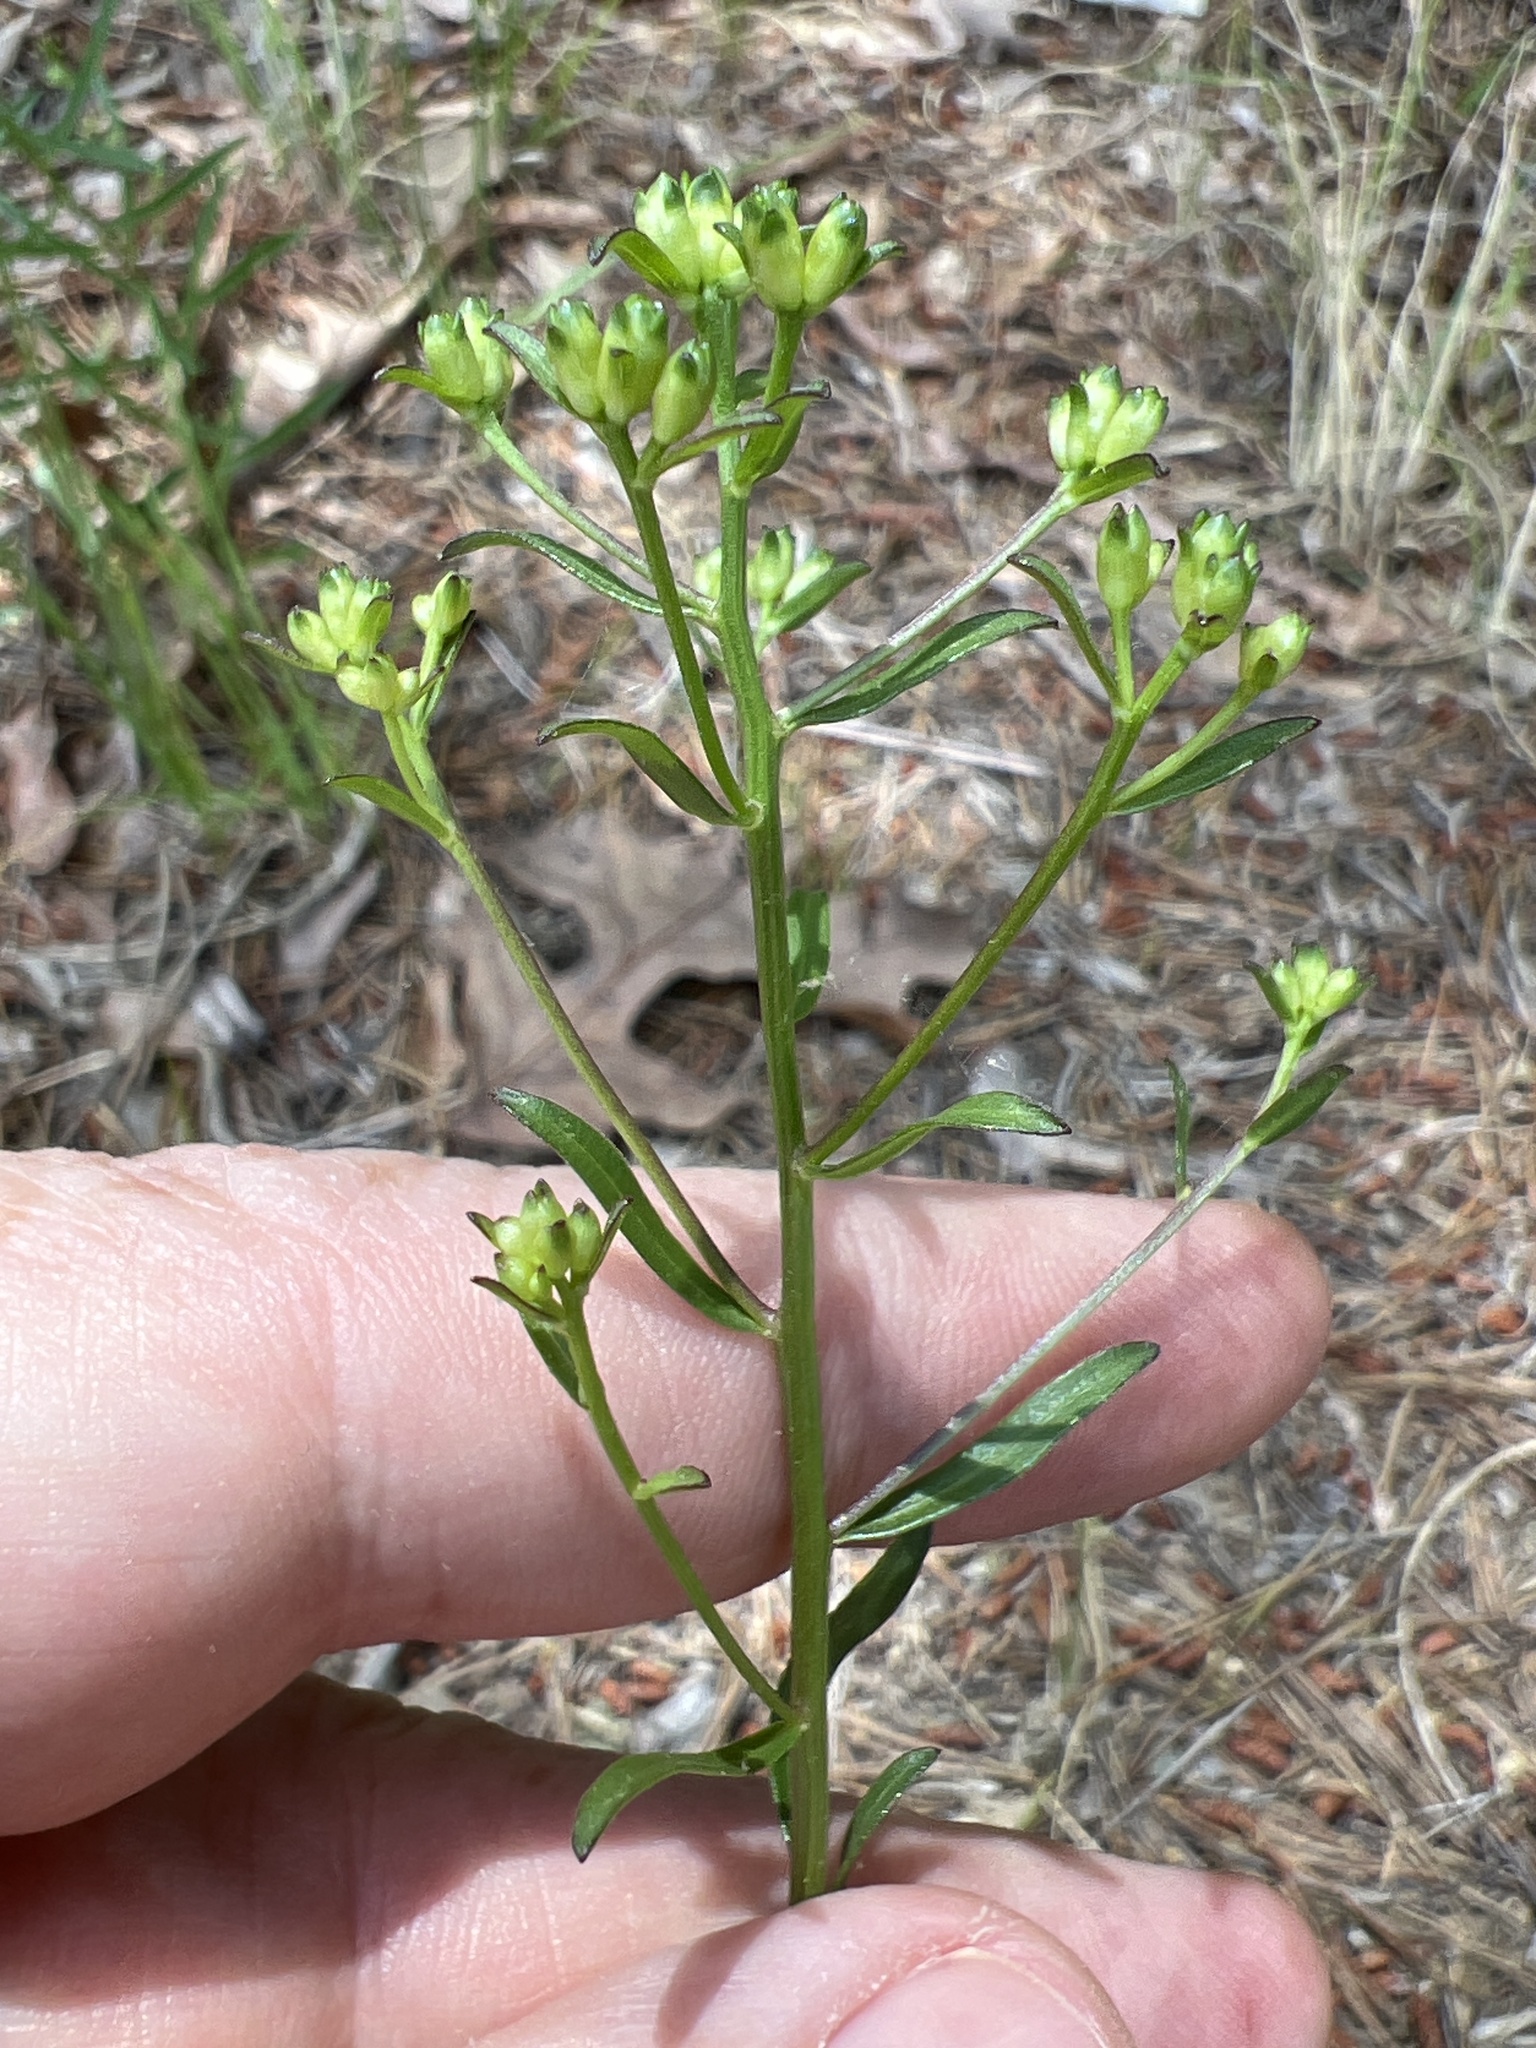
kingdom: Plantae
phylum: Tracheophyta
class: Magnoliopsida
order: Asterales
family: Asteraceae
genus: Sericocarpus
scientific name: Sericocarpus linifolius
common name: Narrow-leaf aster
